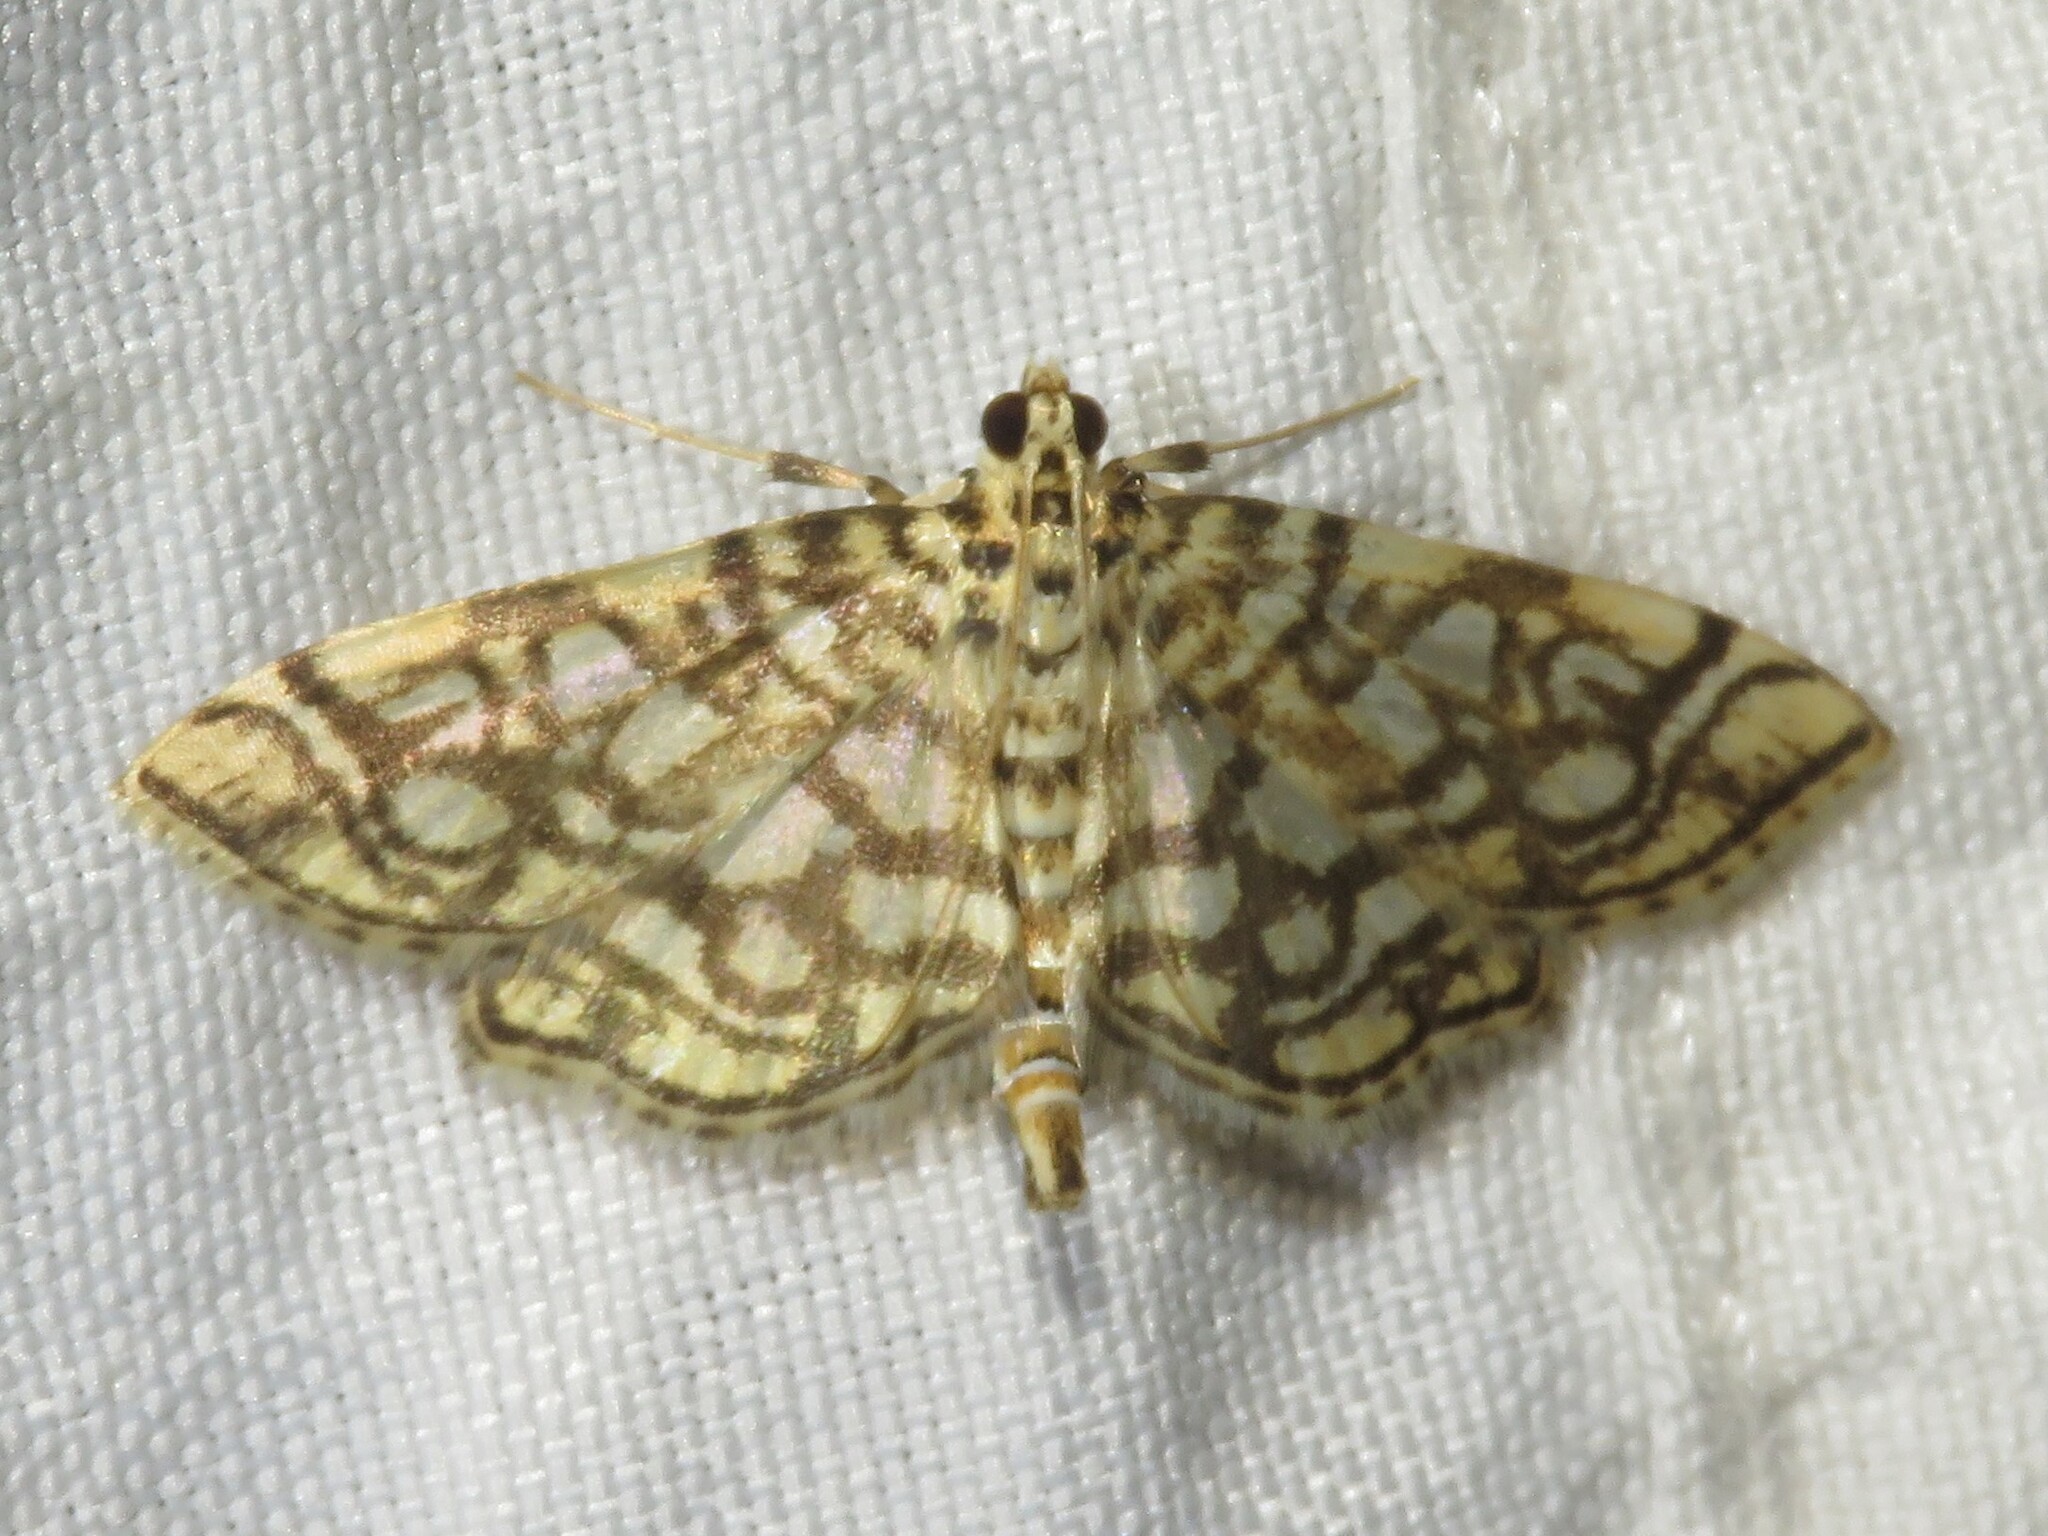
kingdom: Animalia
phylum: Arthropoda
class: Insecta
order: Lepidoptera
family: Crambidae
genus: Lygropia
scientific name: Lygropia rivulalis
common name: Bog lygropia moth
